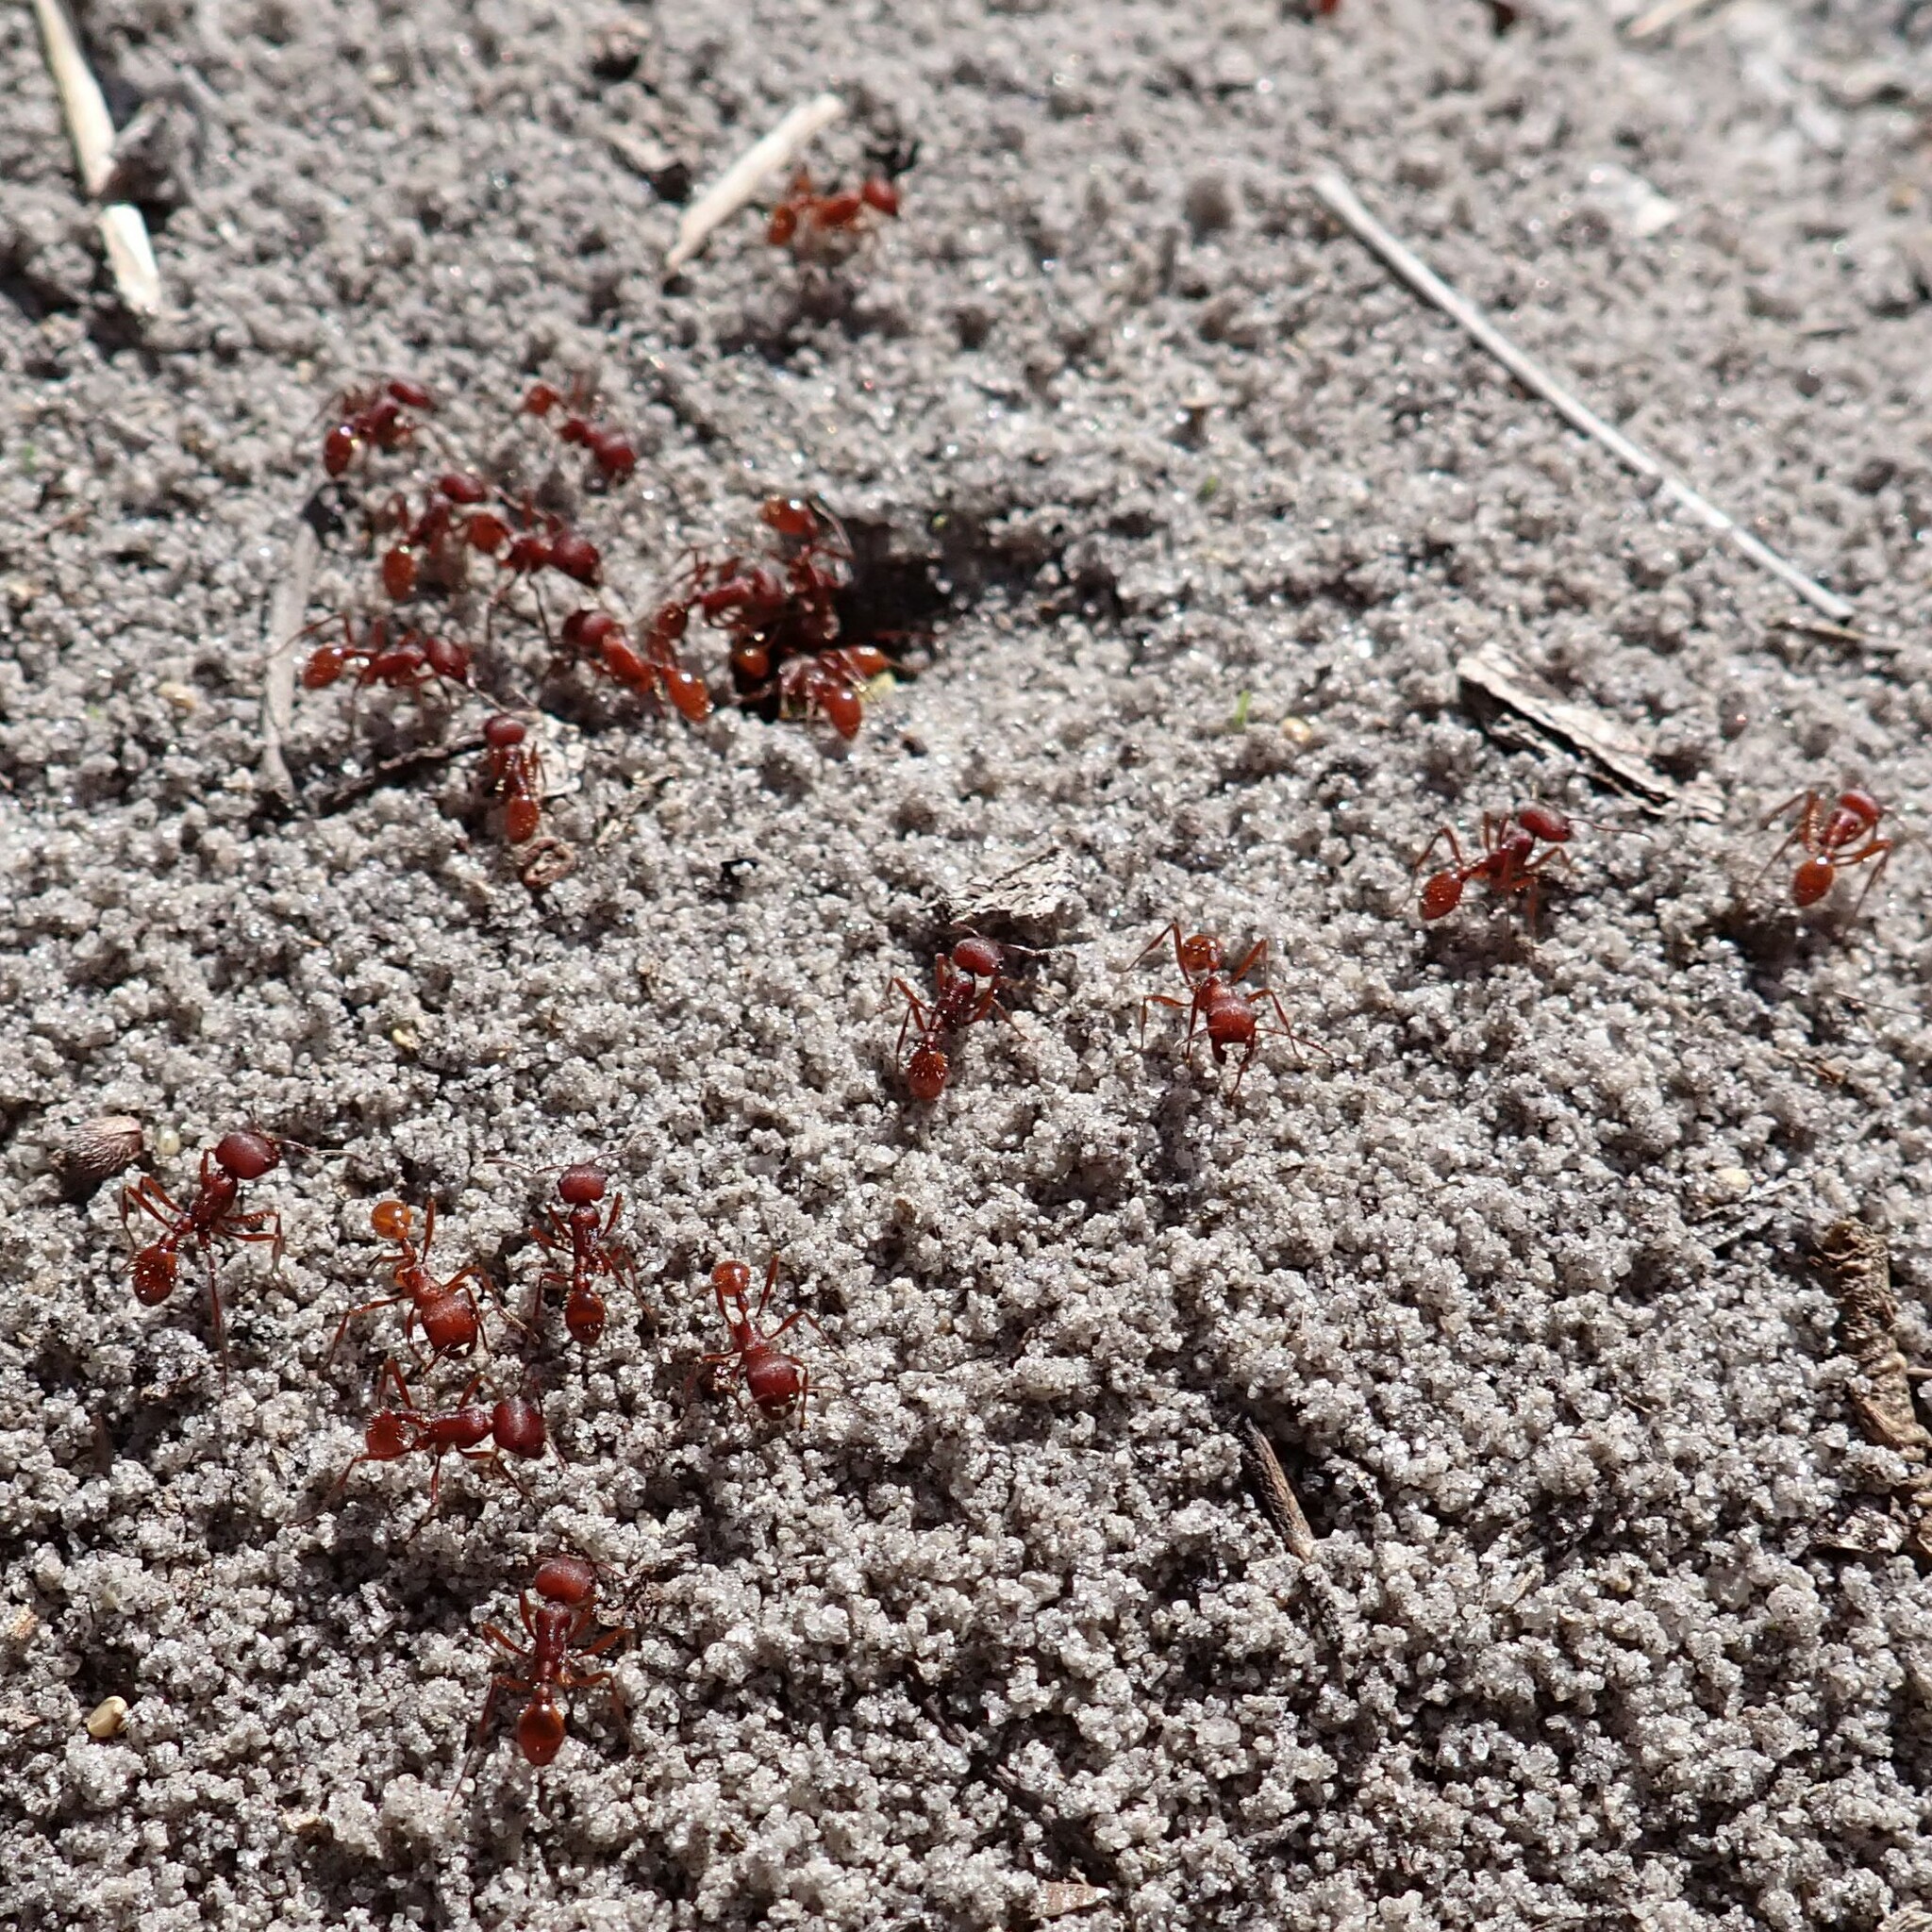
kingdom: Animalia
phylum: Arthropoda
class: Insecta
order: Hymenoptera
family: Formicidae
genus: Pogonomyrmex
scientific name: Pogonomyrmex badius
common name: Florida harvester ant
